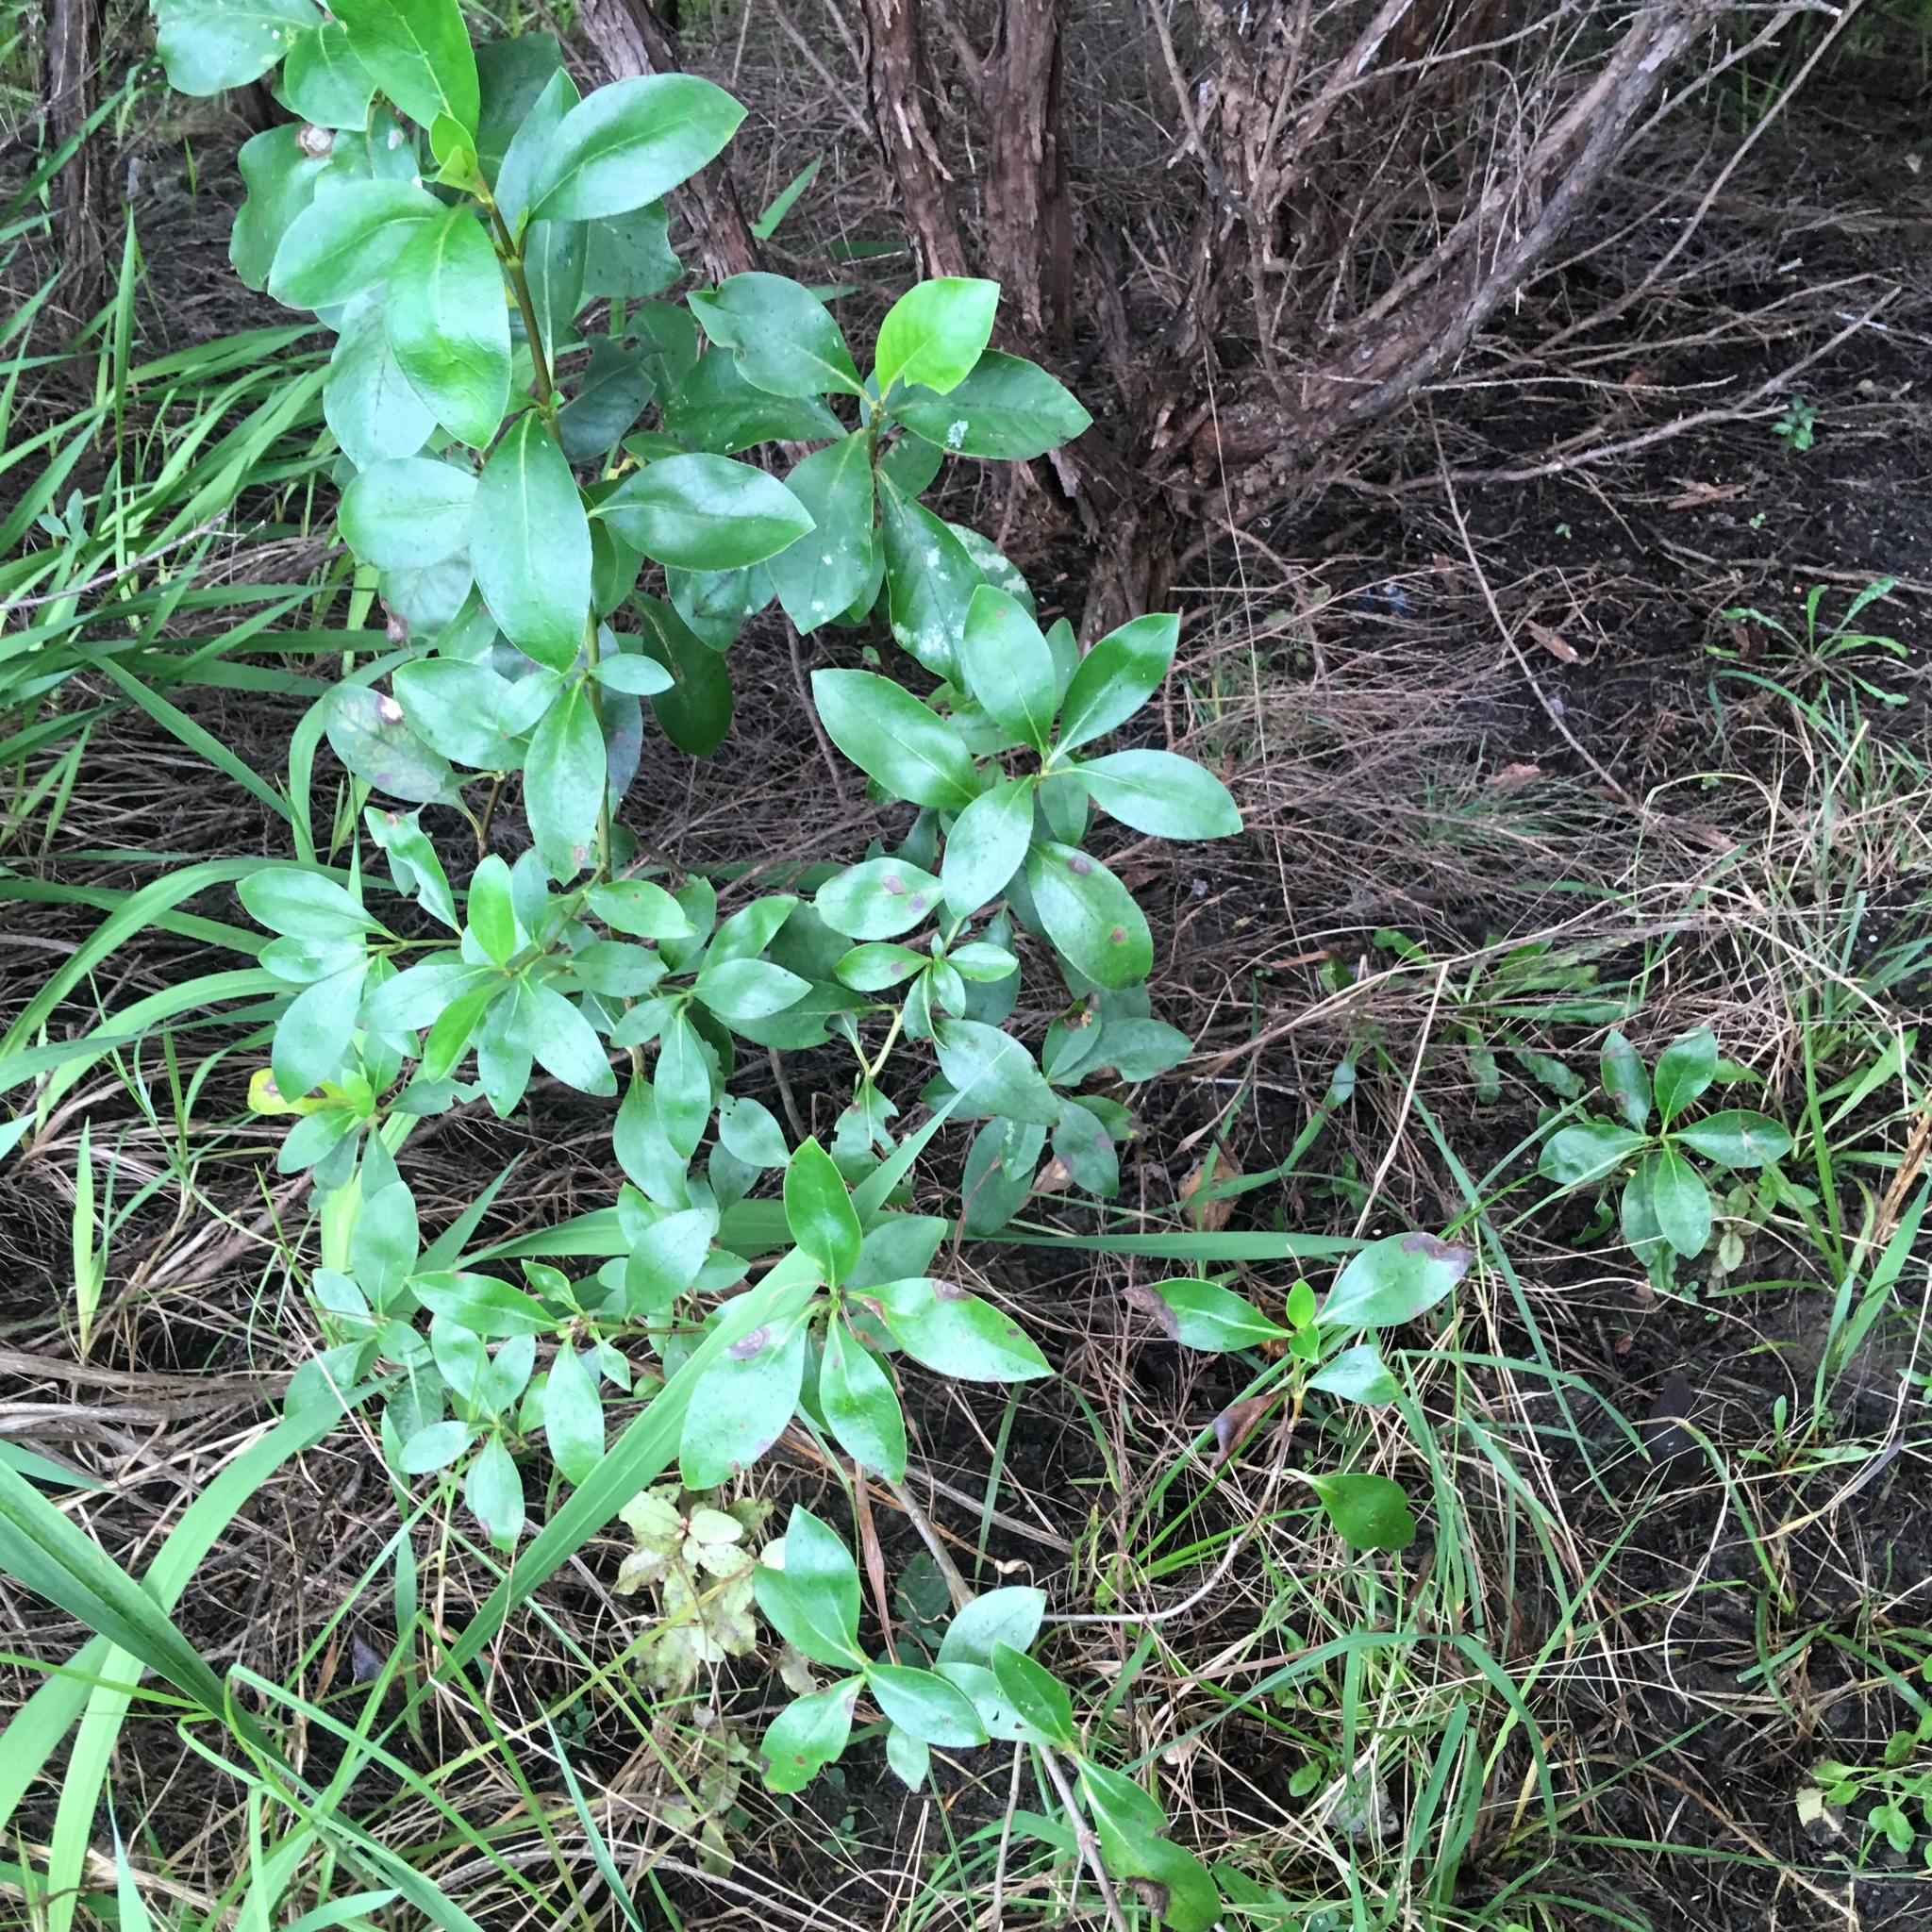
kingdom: Plantae
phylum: Tracheophyta
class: Magnoliopsida
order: Gentianales
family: Rubiaceae
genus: Coprosma
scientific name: Coprosma robusta
